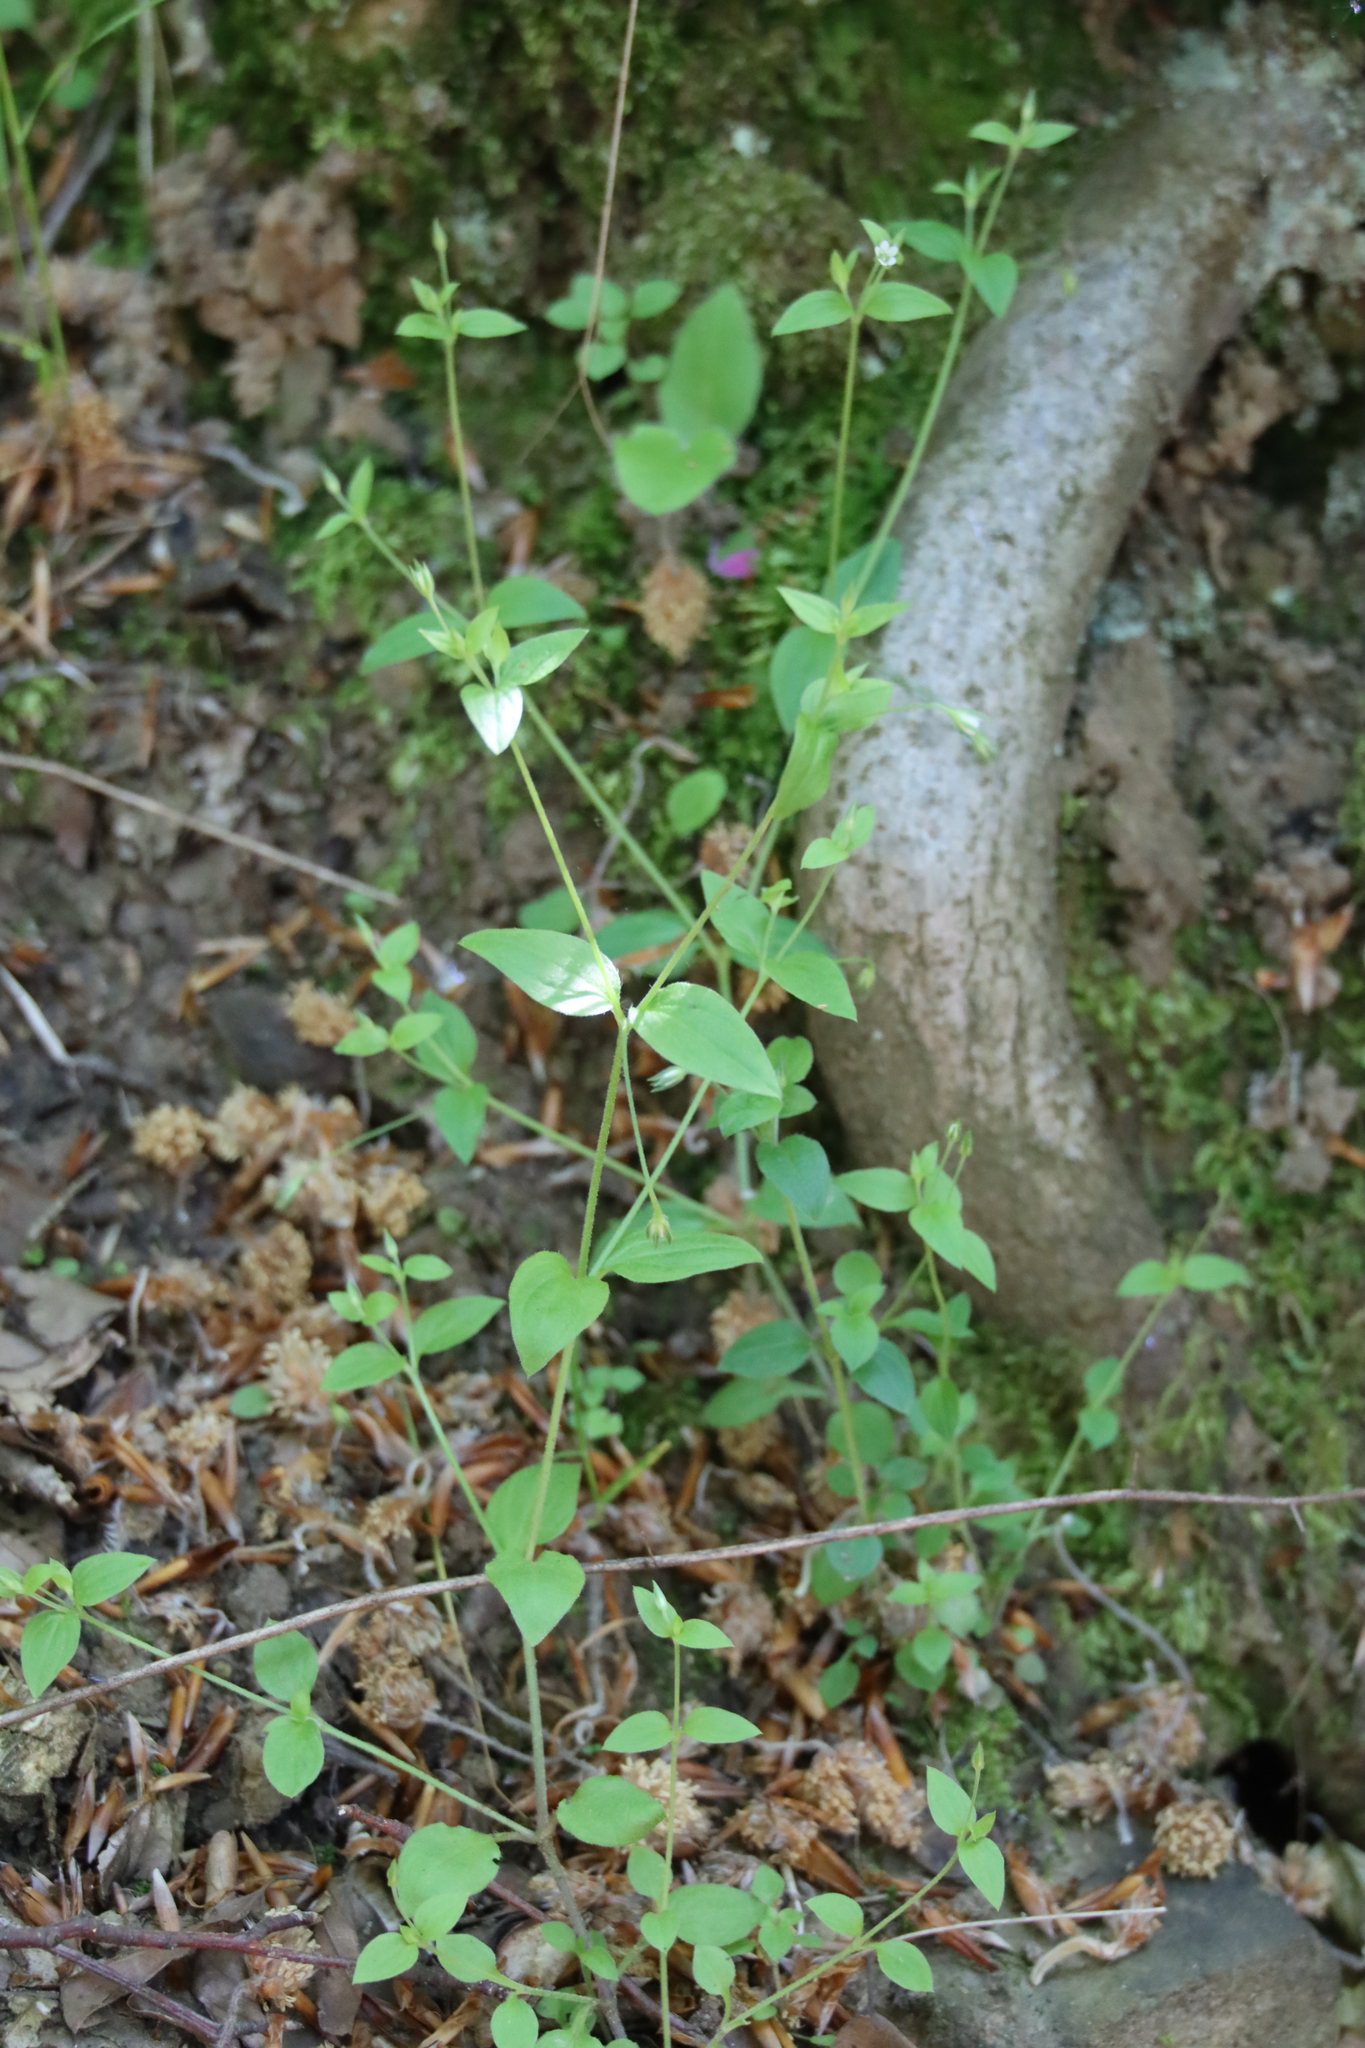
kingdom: Plantae
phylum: Tracheophyta
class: Magnoliopsida
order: Caryophyllales
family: Caryophyllaceae
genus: Moehringia
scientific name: Moehringia trinervia
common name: Three-nerved sandwort
